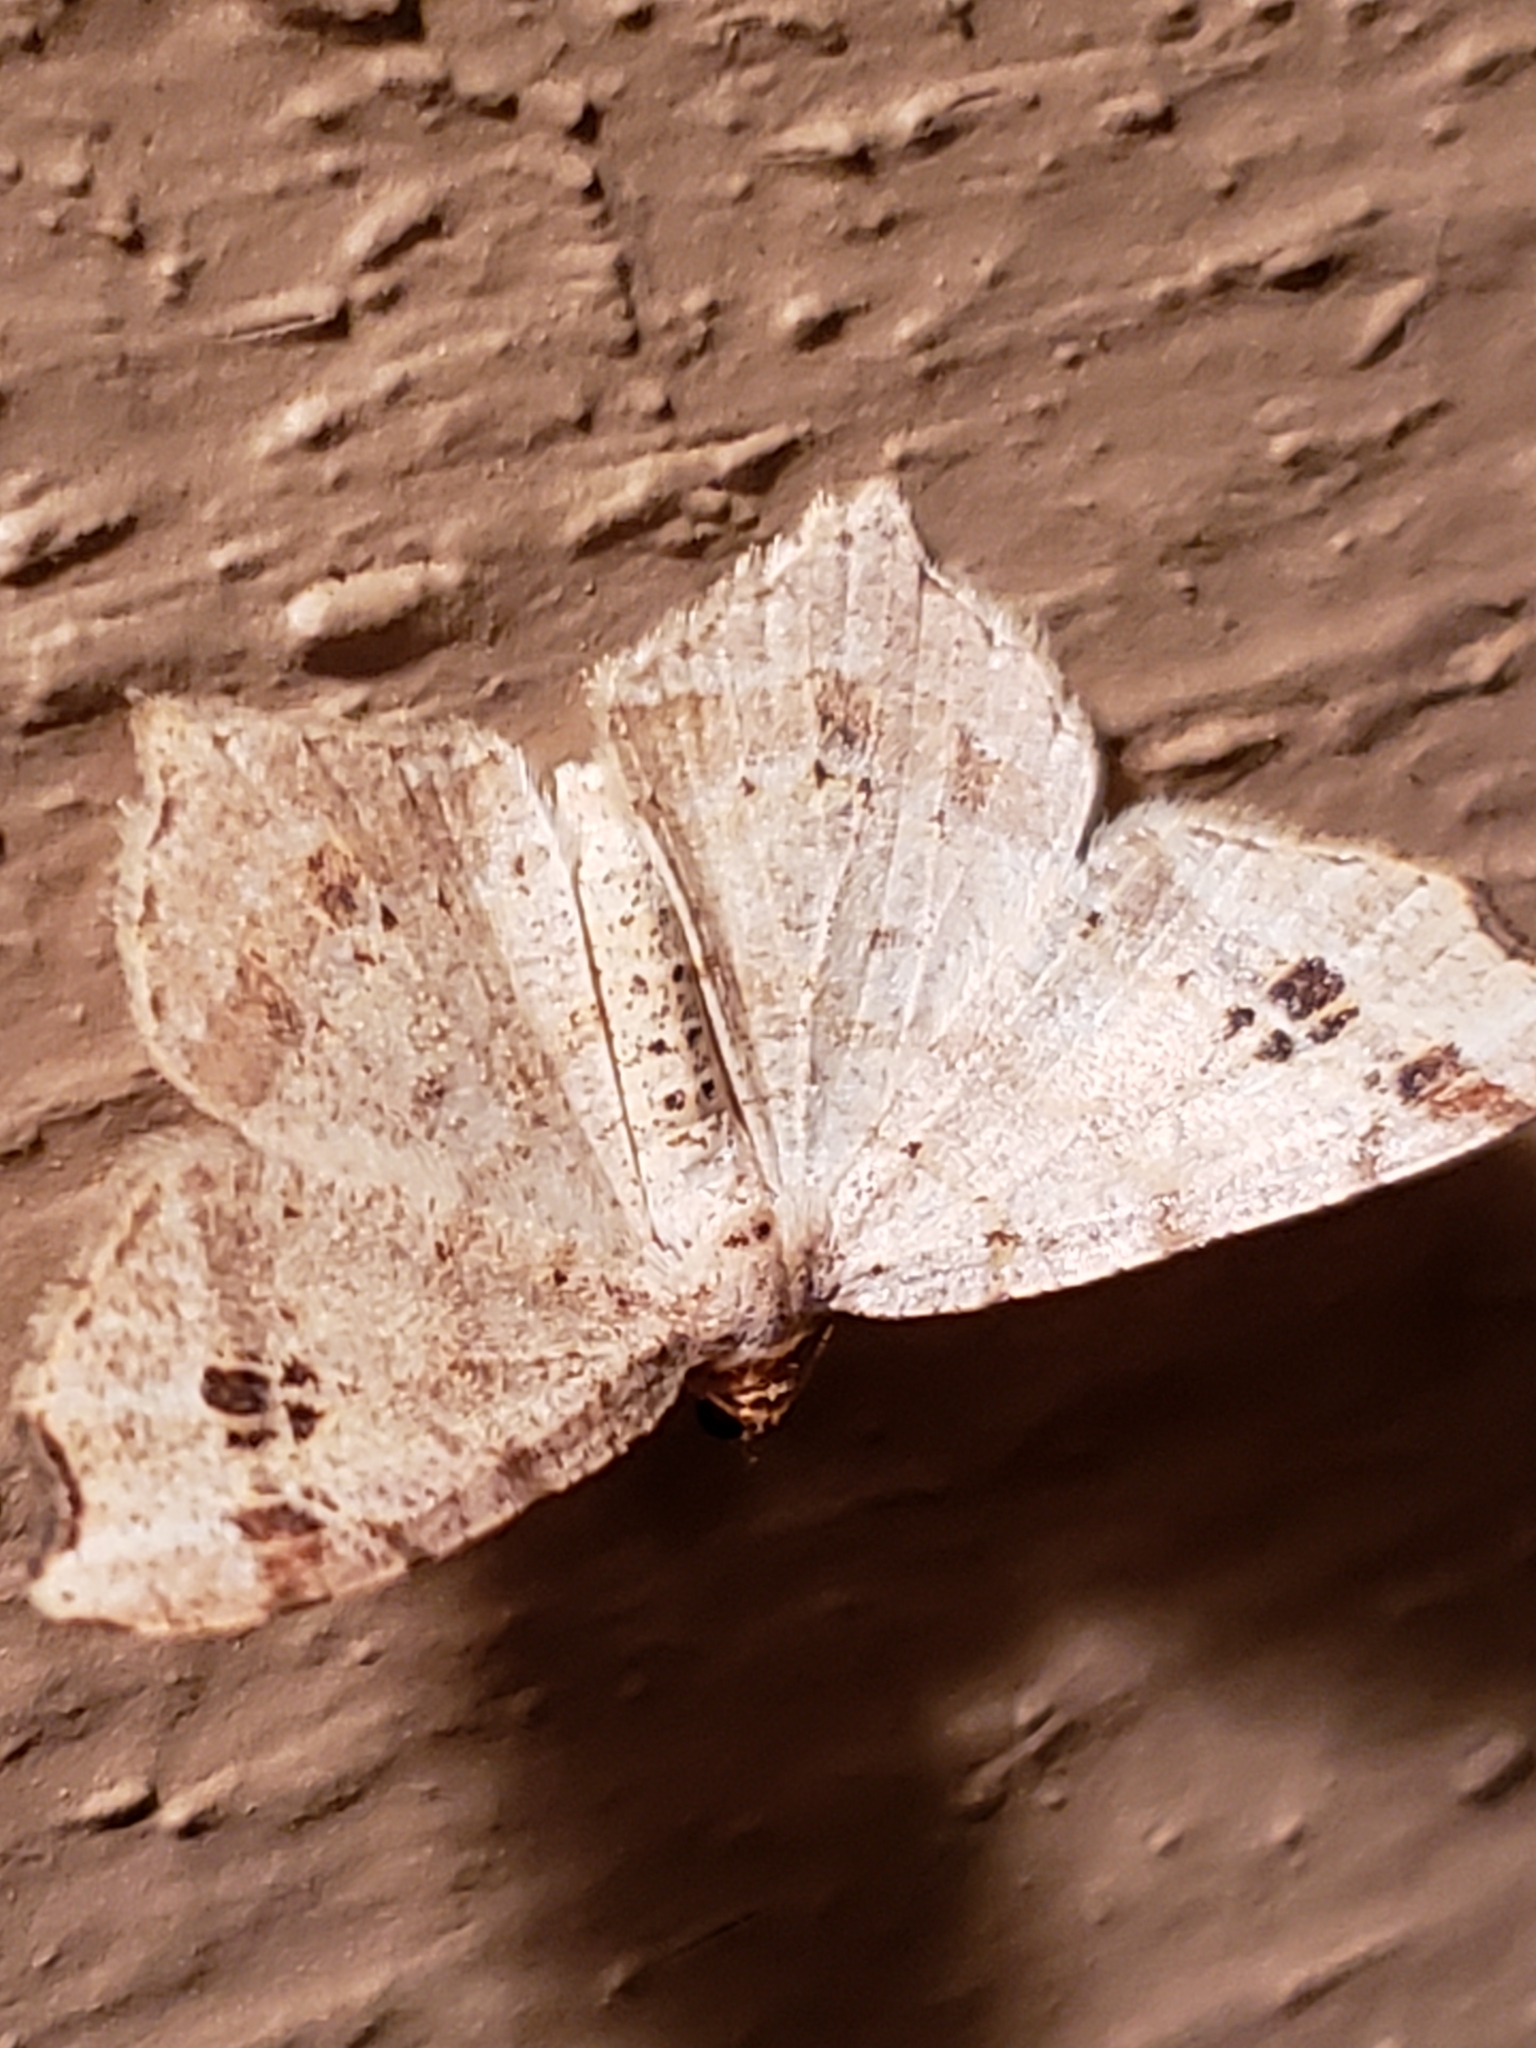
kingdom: Animalia
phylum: Arthropoda
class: Insecta
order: Lepidoptera
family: Geometridae
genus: Macaria
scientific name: Macaria aemulataria
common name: Common angle
